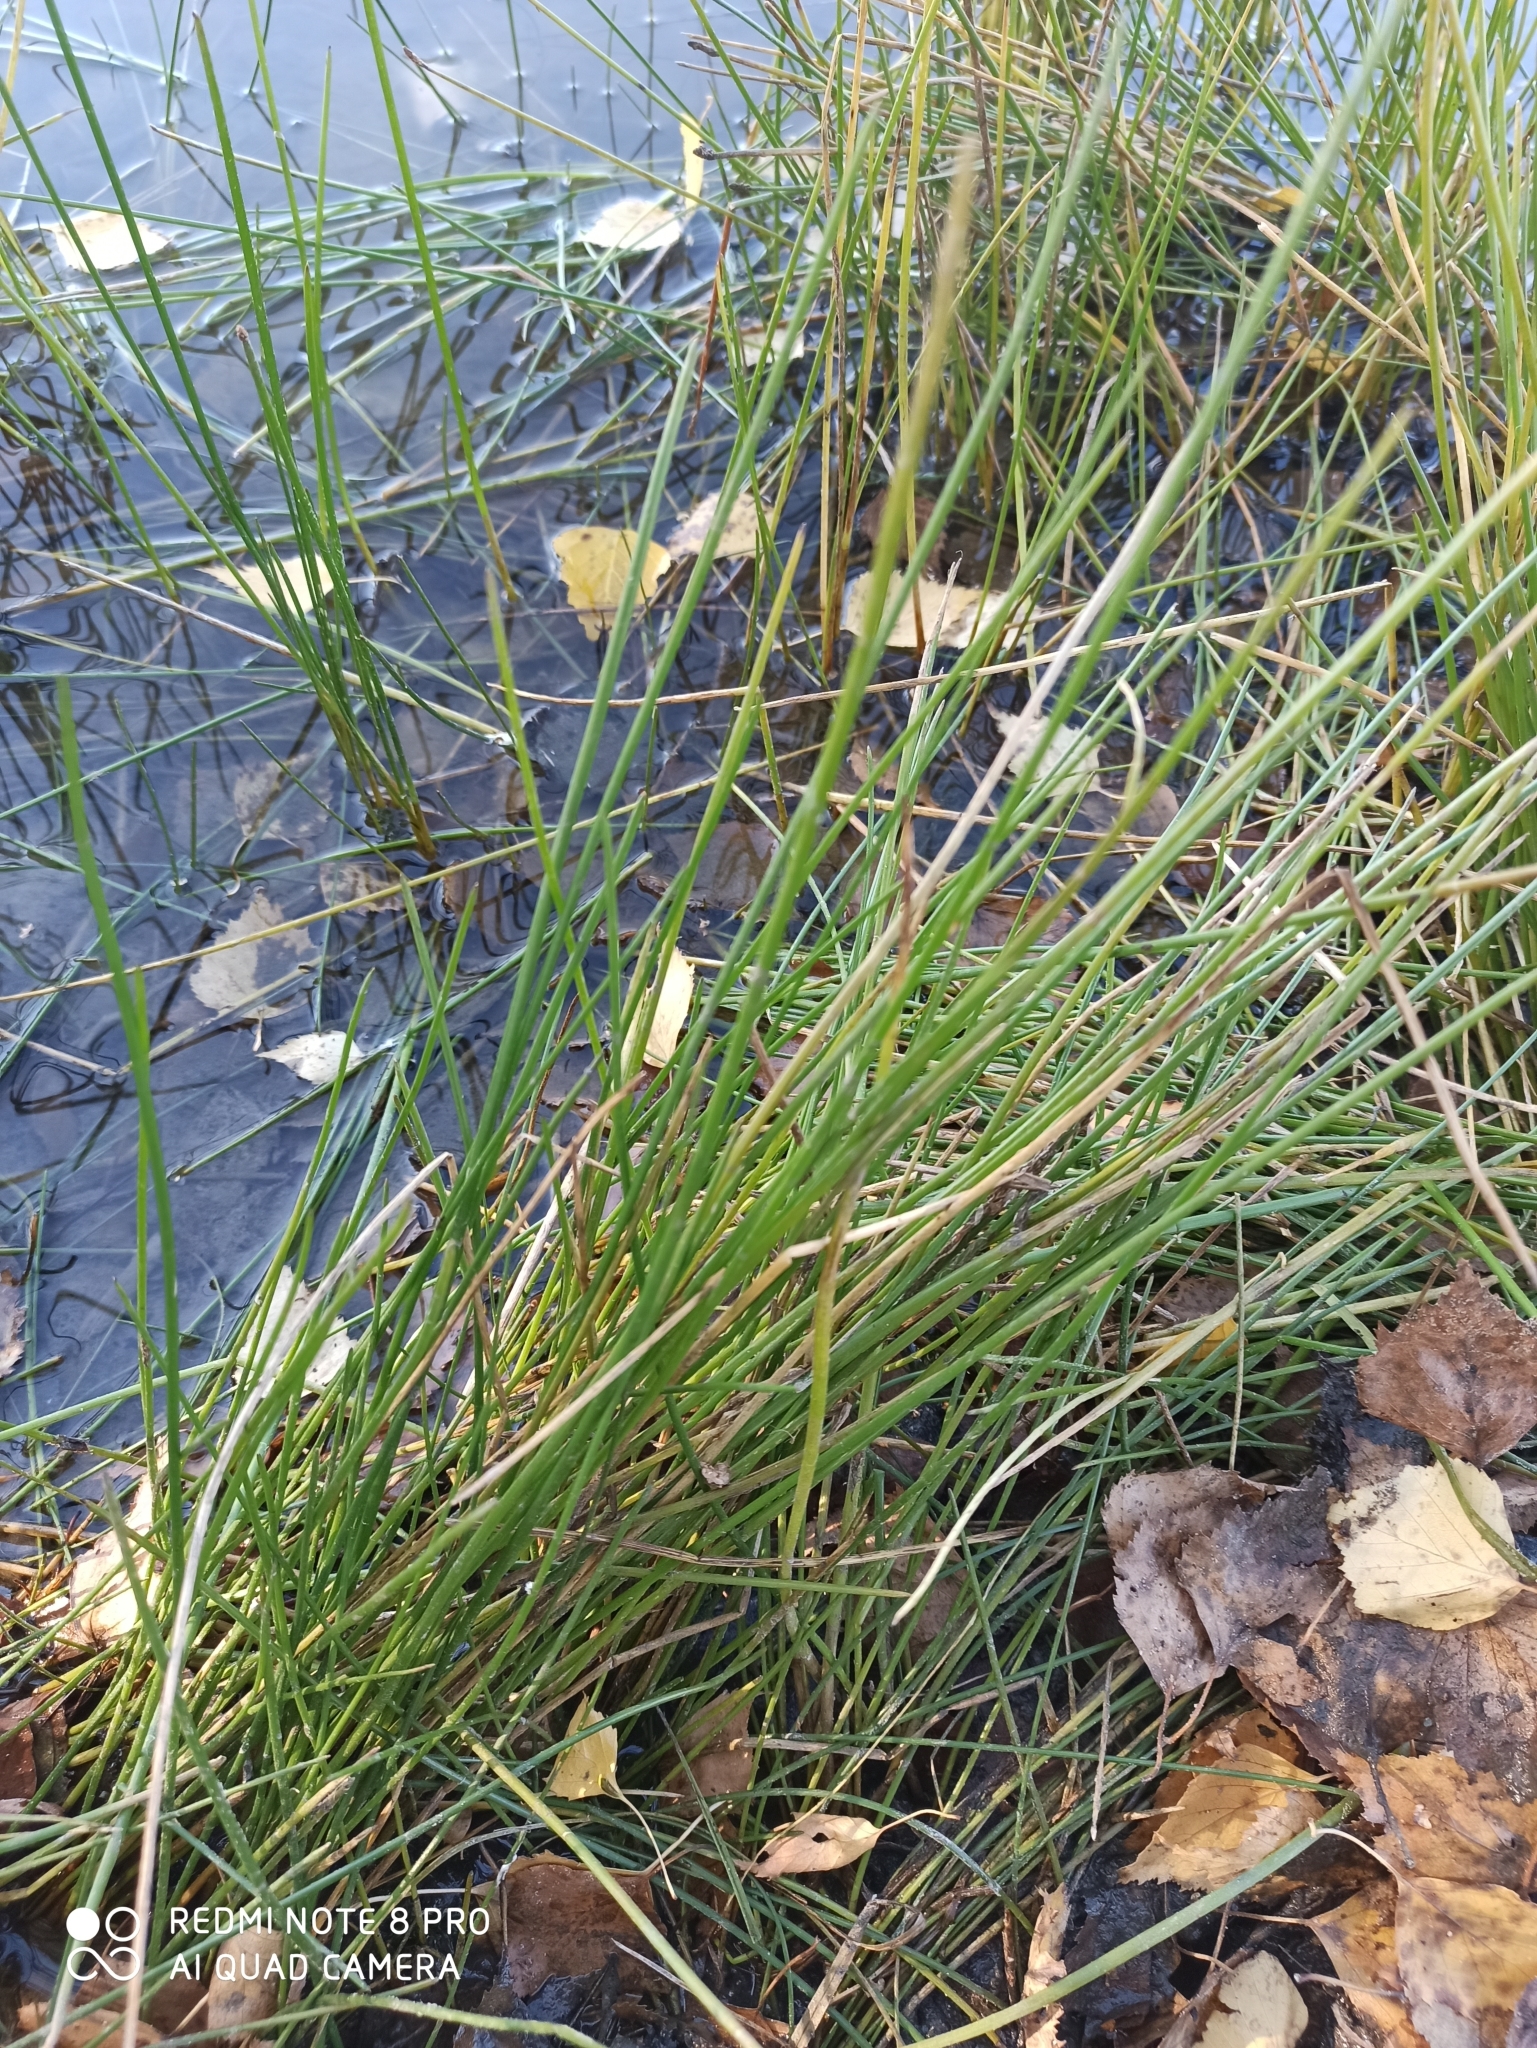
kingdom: Plantae
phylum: Tracheophyta
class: Liliopsida
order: Poales
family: Juncaceae
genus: Juncus
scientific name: Juncus effusus
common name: Soft rush
